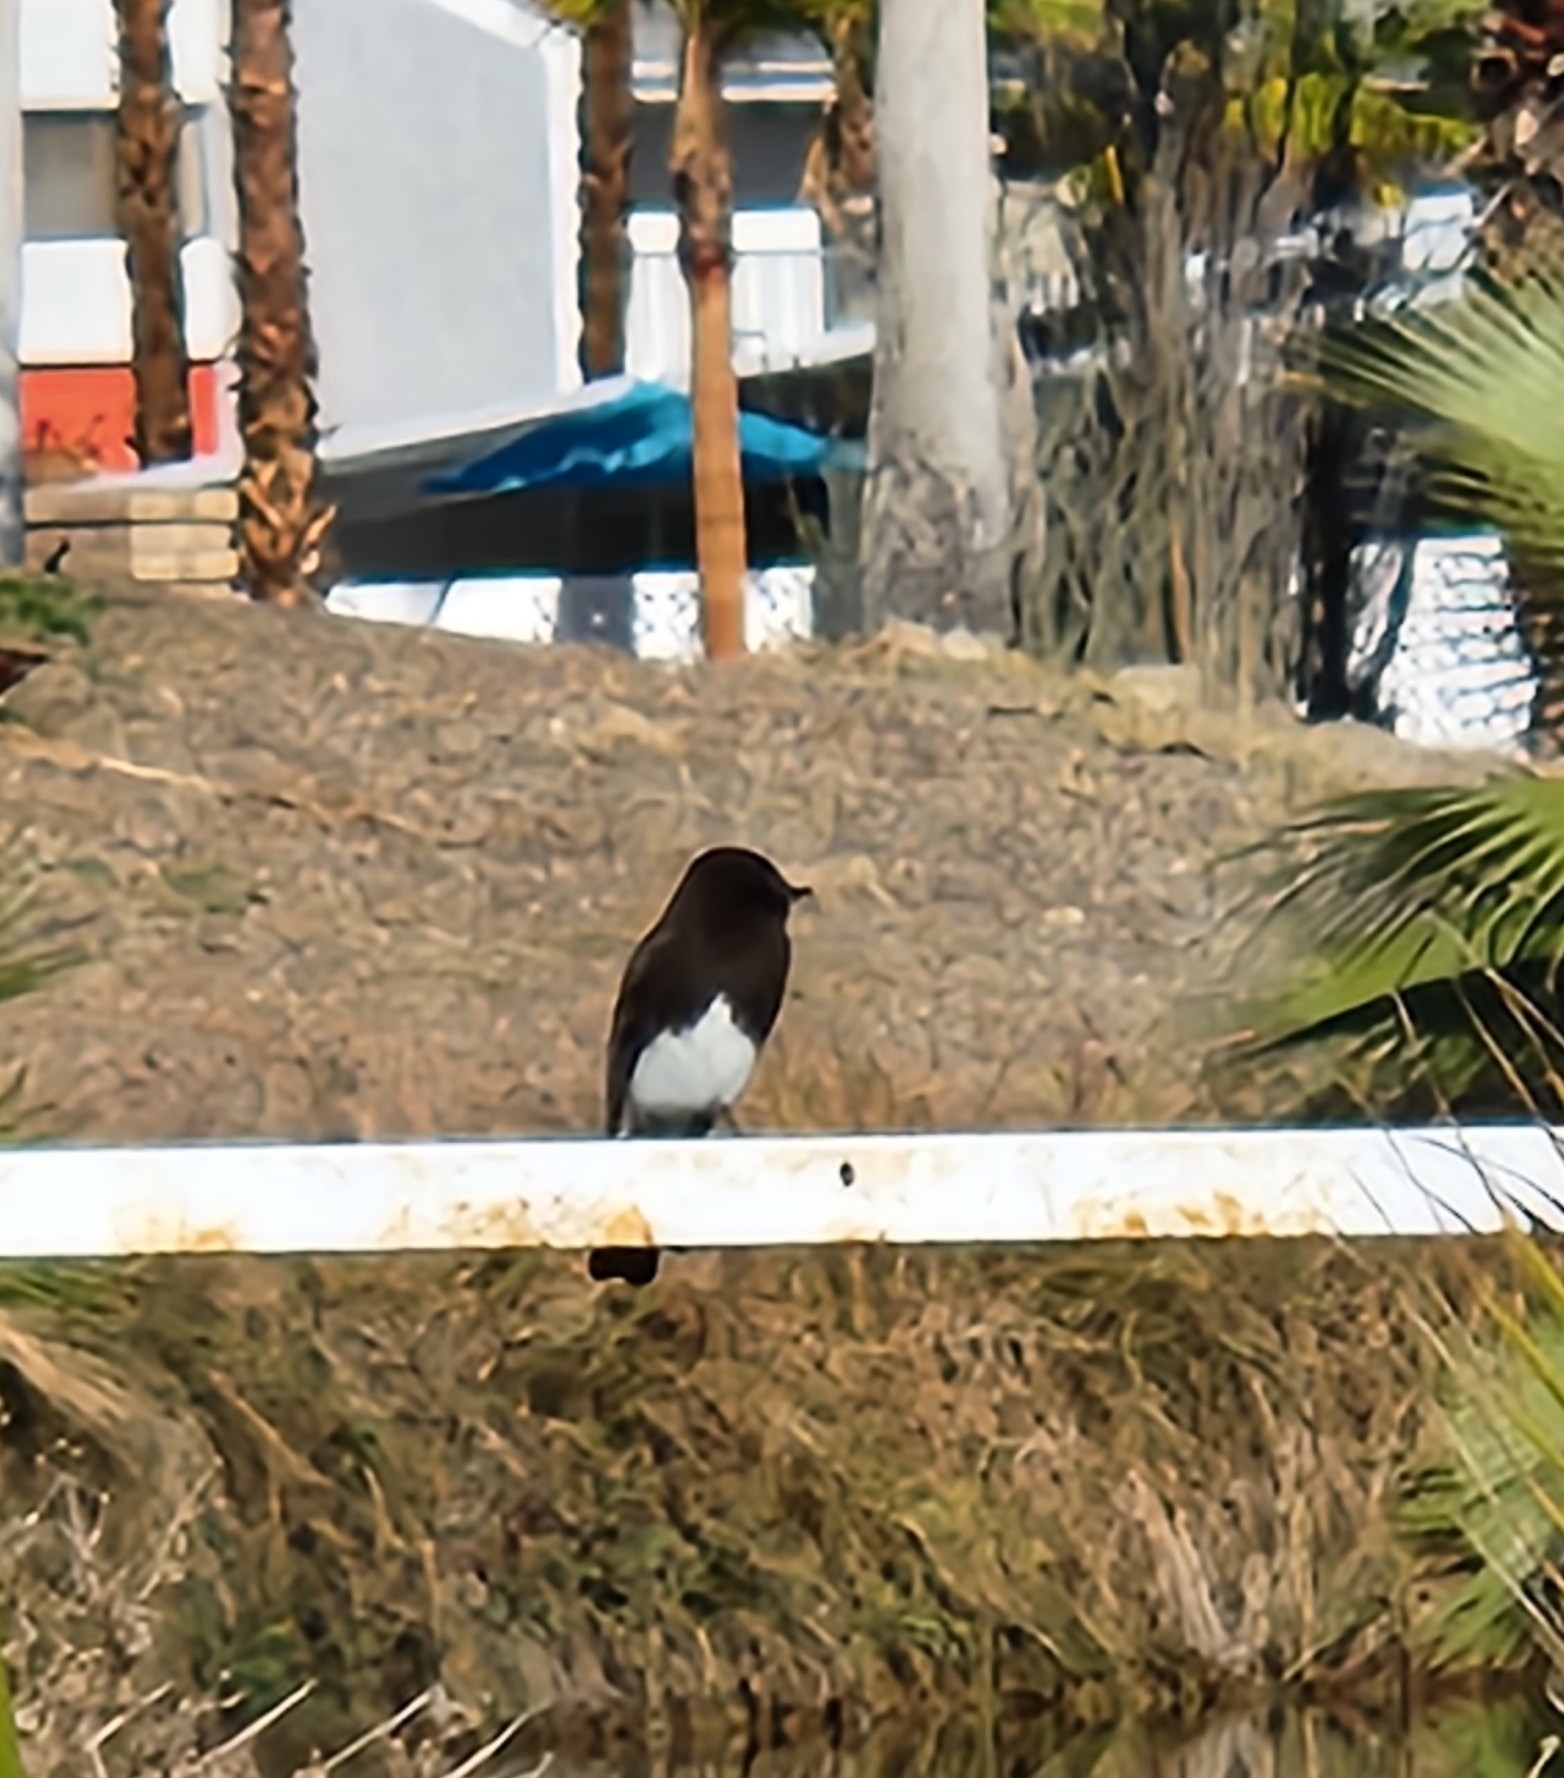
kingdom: Animalia
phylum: Chordata
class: Aves
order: Passeriformes
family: Tyrannidae
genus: Sayornis
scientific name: Sayornis nigricans
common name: Black phoebe
